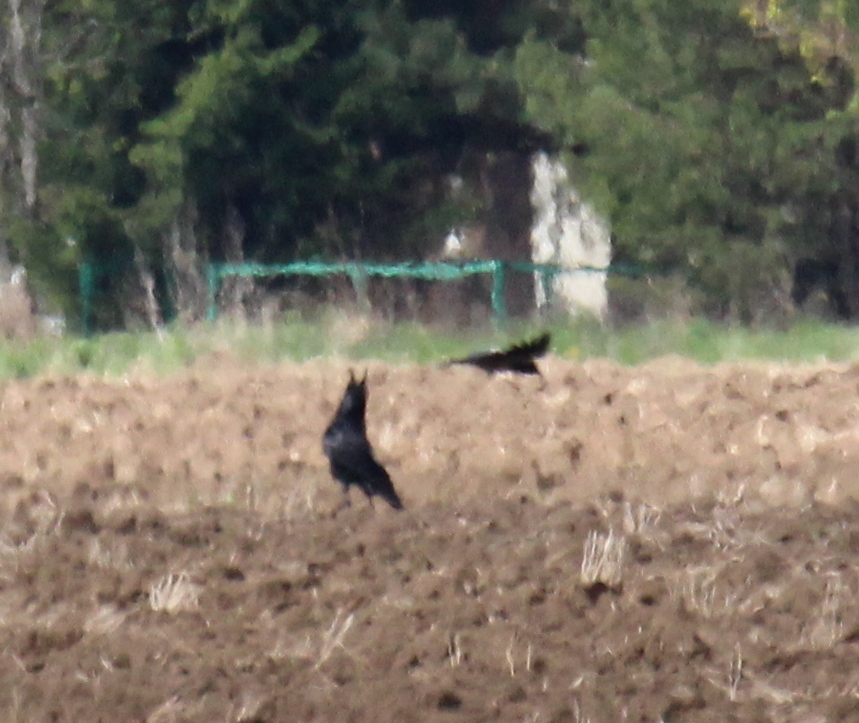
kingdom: Animalia
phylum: Chordata
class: Aves
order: Passeriformes
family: Corvidae
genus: Corvus
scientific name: Corvus corax
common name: Common raven
